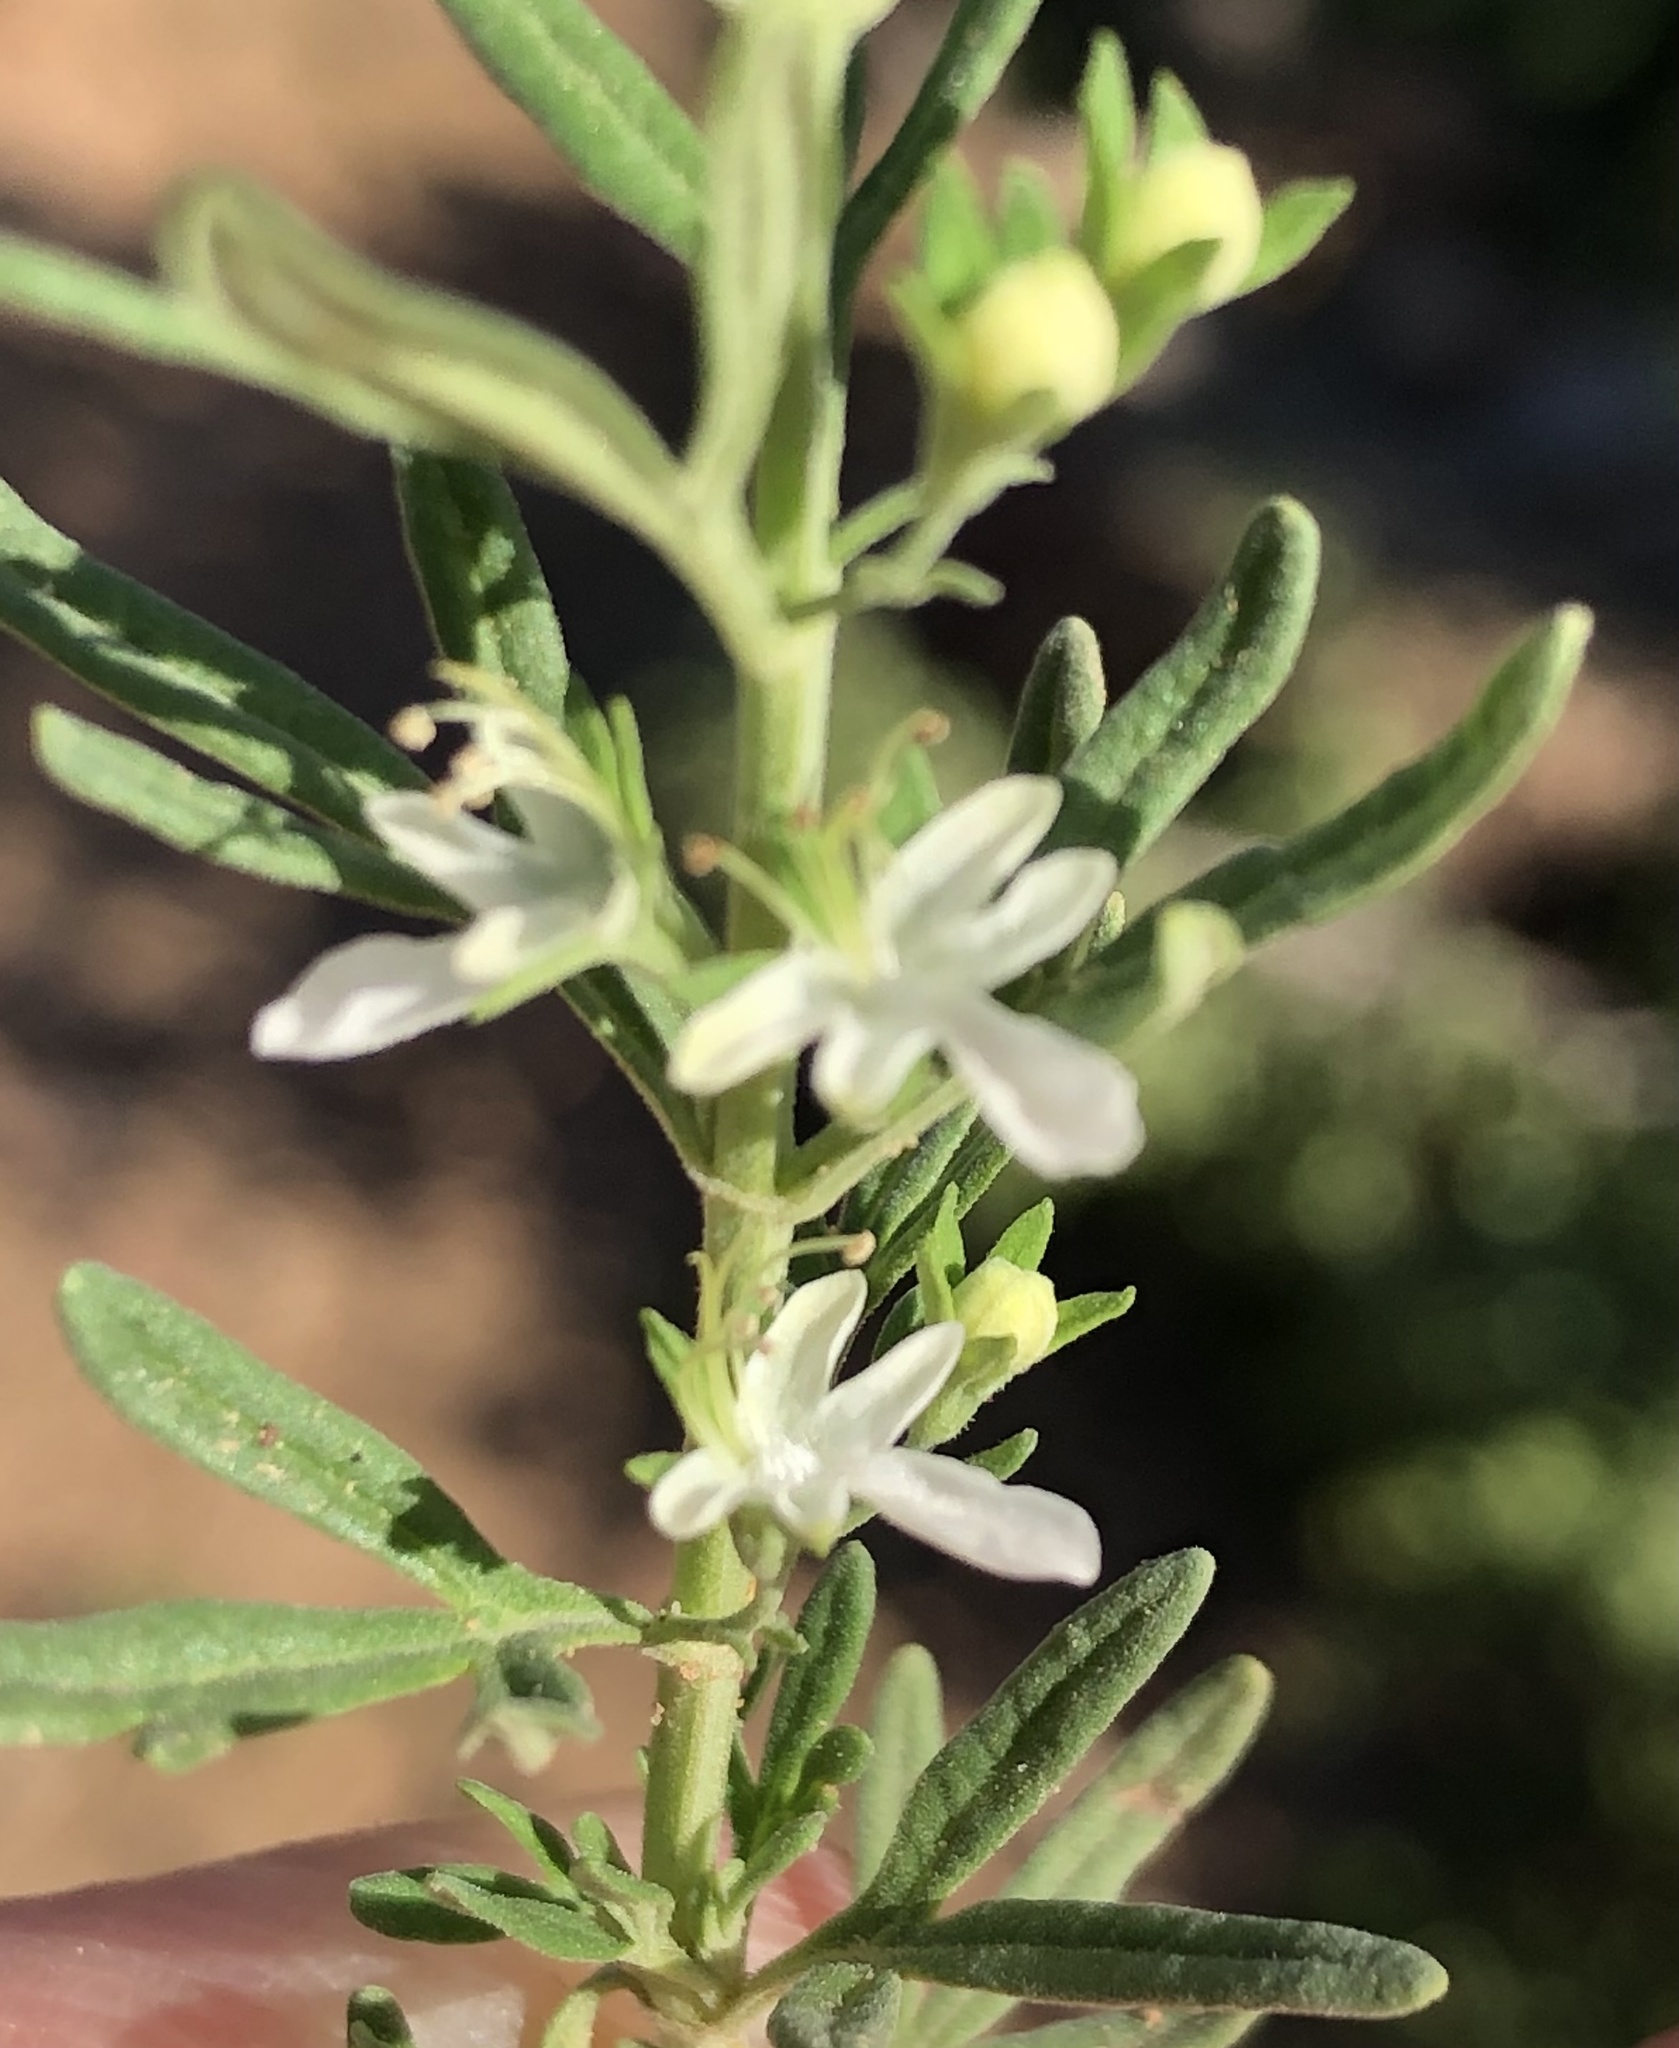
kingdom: Plantae
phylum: Tracheophyta
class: Magnoliopsida
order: Lamiales
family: Lamiaceae
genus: Teucrium
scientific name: Teucrium trifidum
